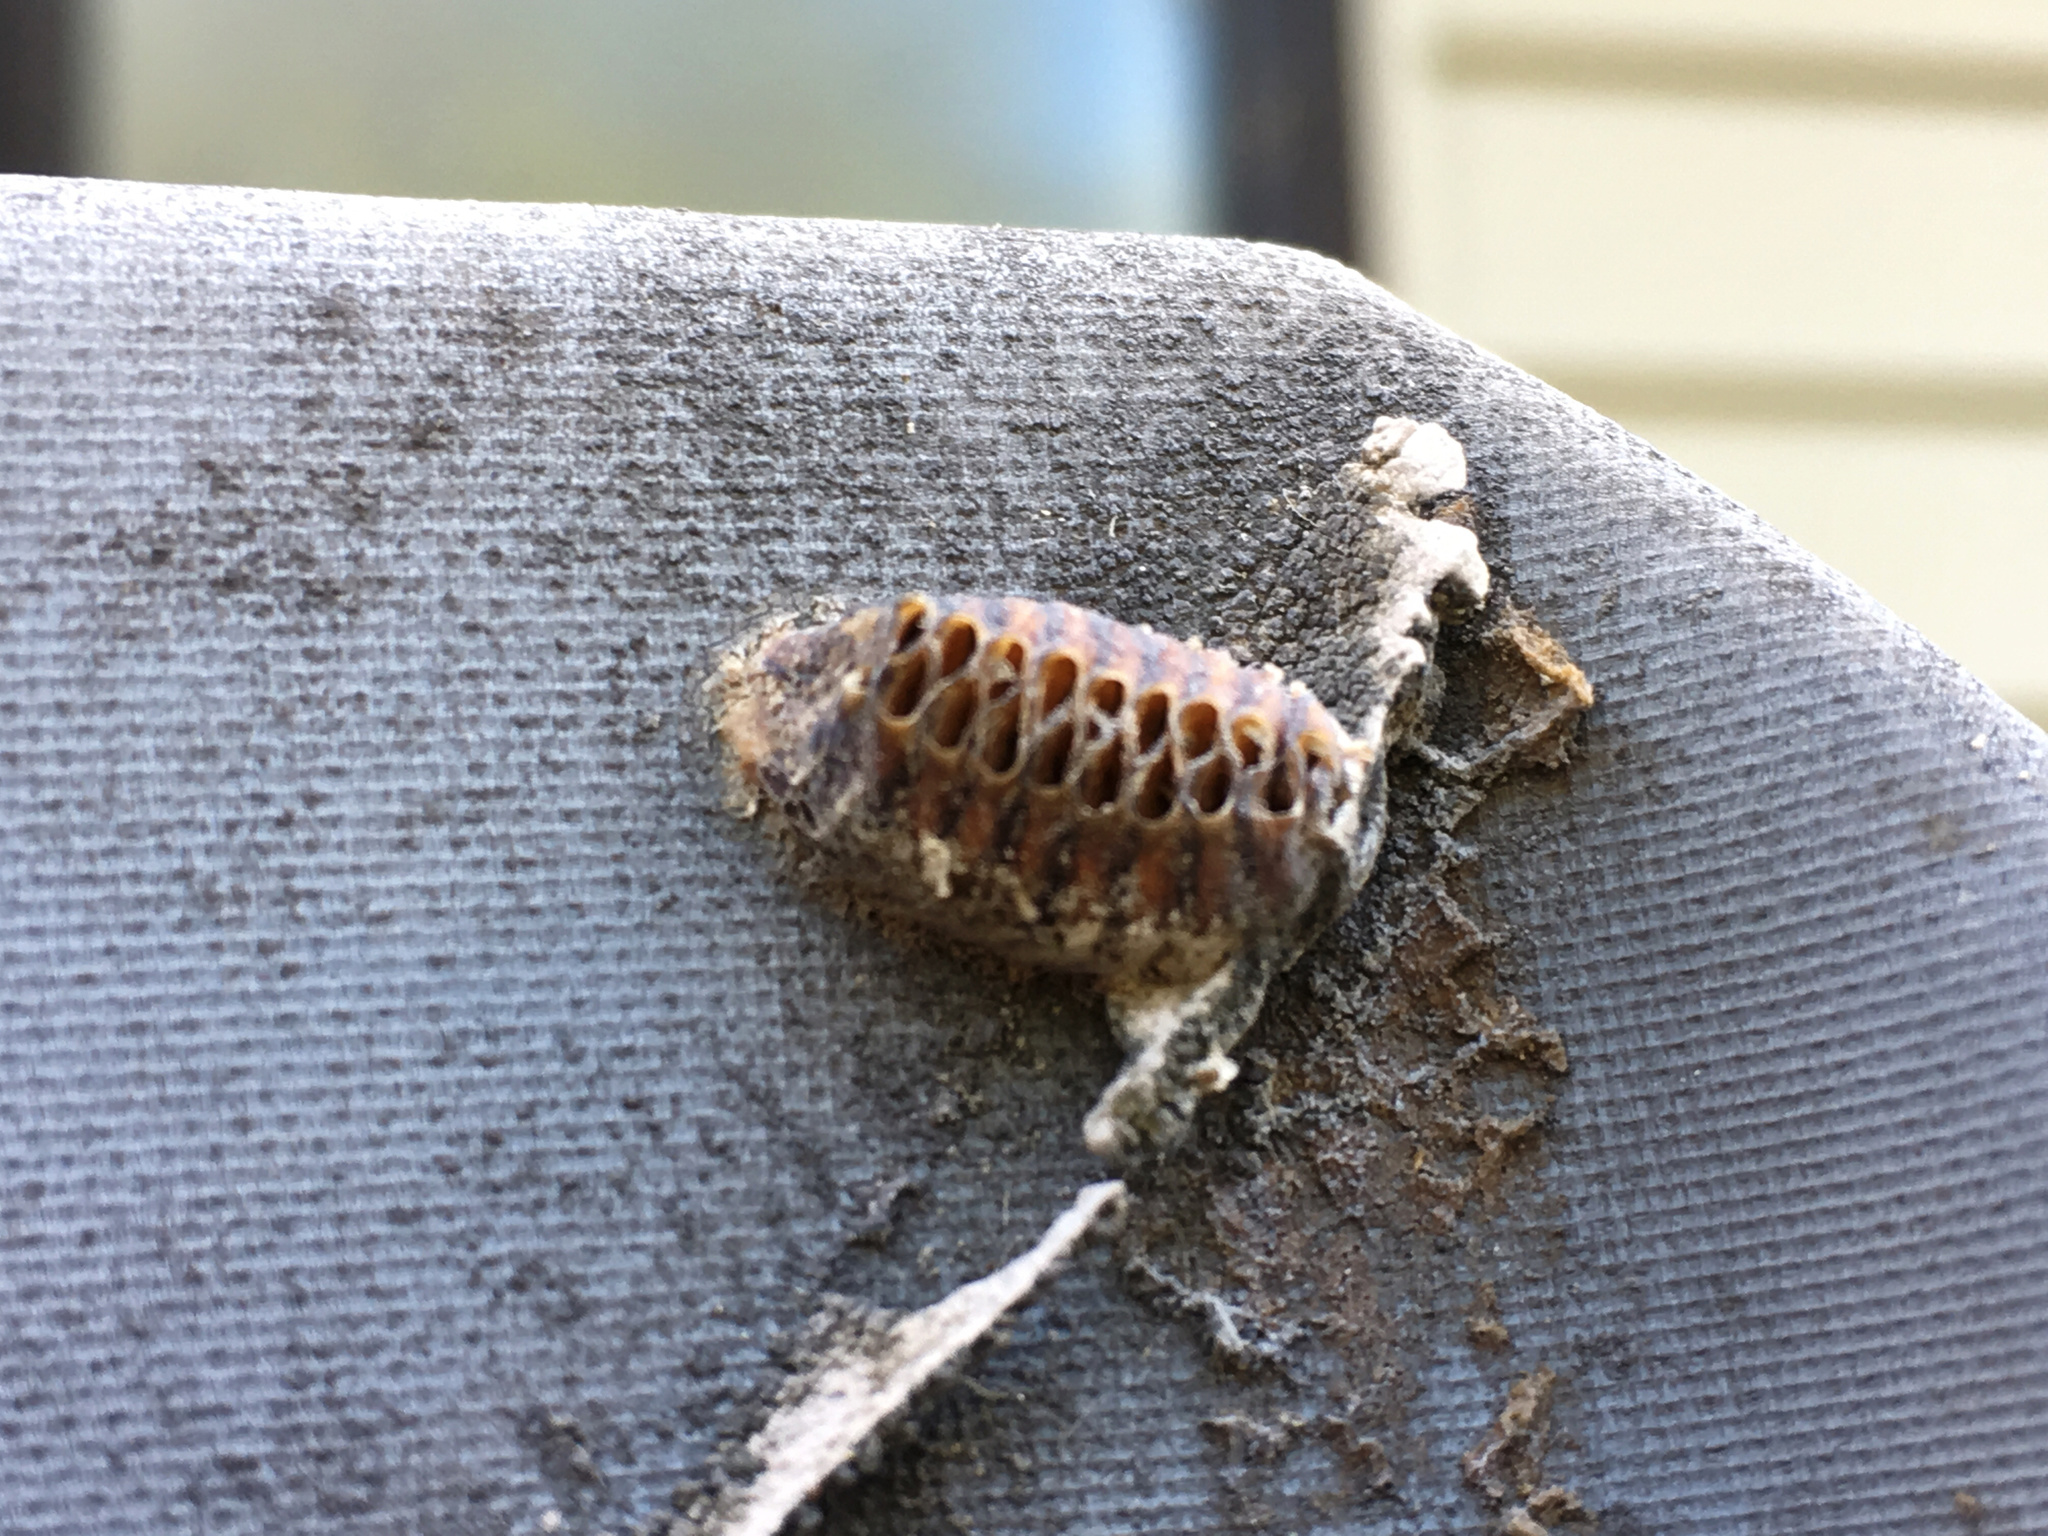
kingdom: Animalia
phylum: Arthropoda
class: Insecta
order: Mantodea
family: Mantidae
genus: Orthodera
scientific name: Orthodera novaezealandiae
